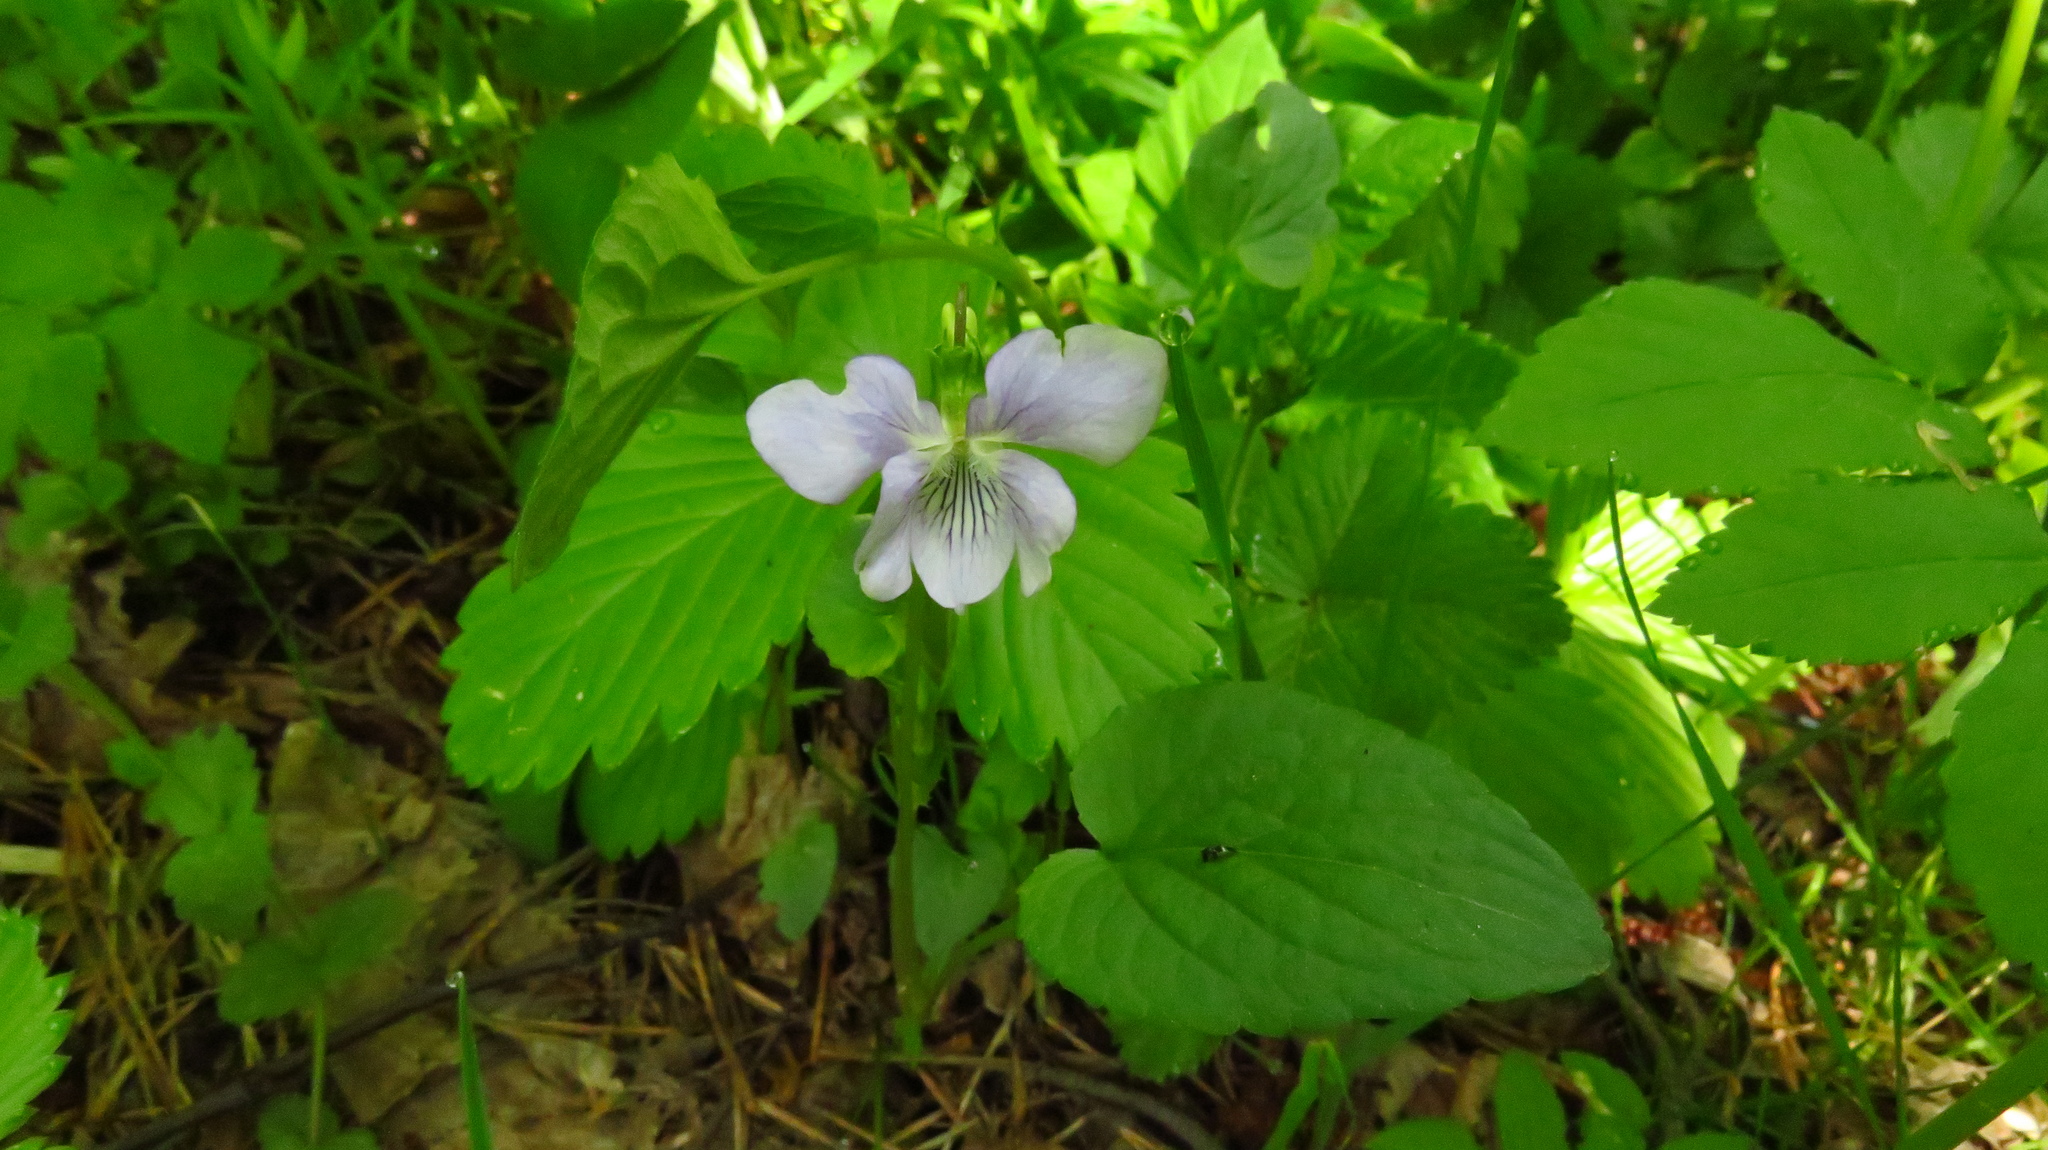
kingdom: Plantae
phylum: Tracheophyta
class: Magnoliopsida
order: Malpighiales
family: Violaceae
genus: Viola
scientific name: Viola
